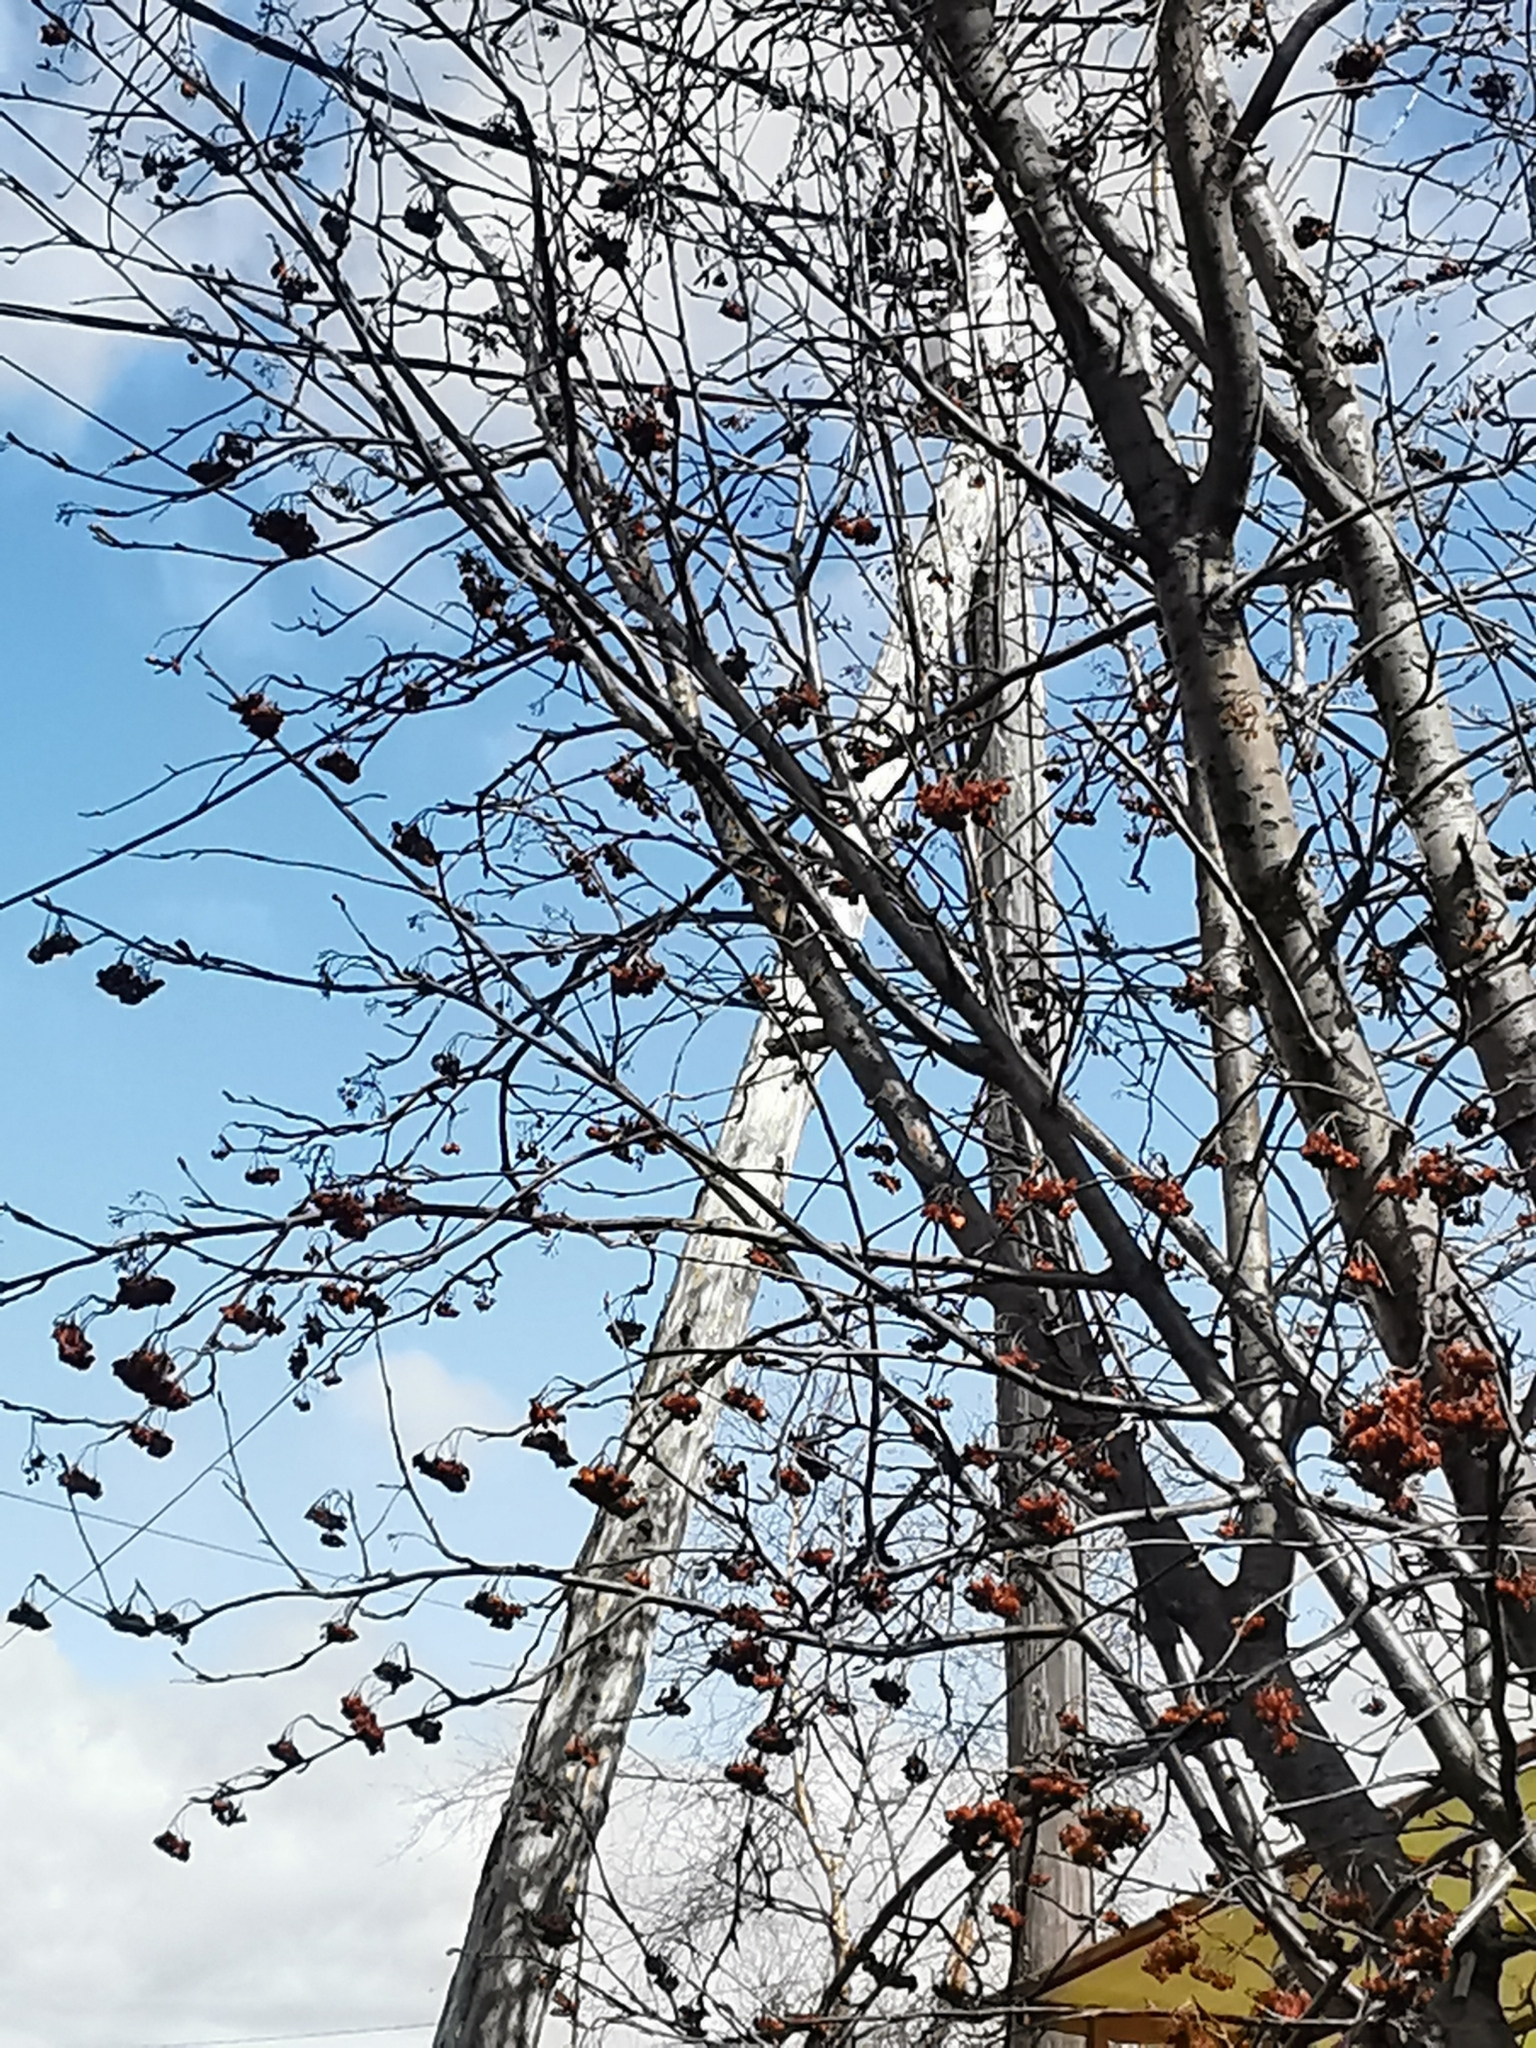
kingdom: Plantae
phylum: Tracheophyta
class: Magnoliopsida
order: Rosales
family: Rosaceae
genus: Sorbus
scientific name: Sorbus aucuparia
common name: Rowan
